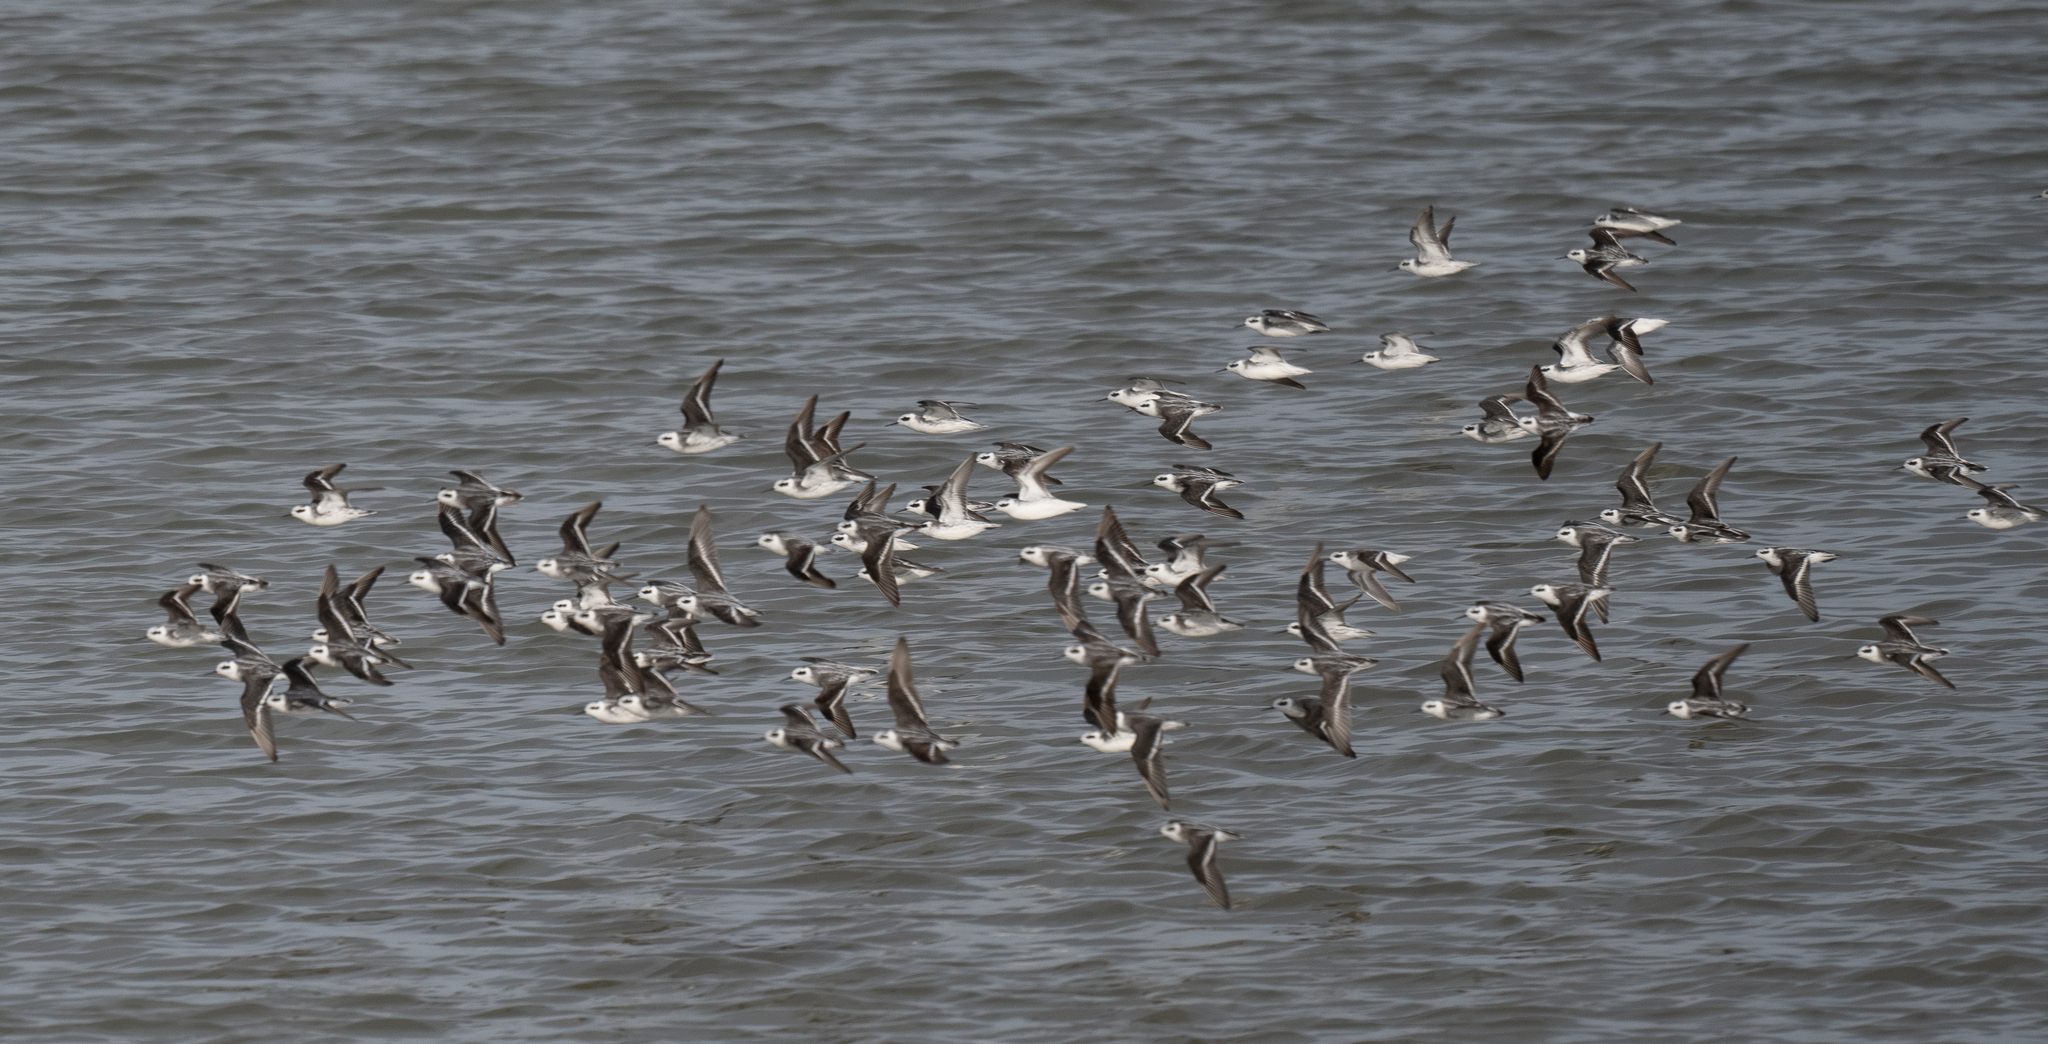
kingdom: Animalia
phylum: Chordata
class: Aves
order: Charadriiformes
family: Scolopacidae
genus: Phalaropus
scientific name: Phalaropus lobatus
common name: Red-necked phalarope
